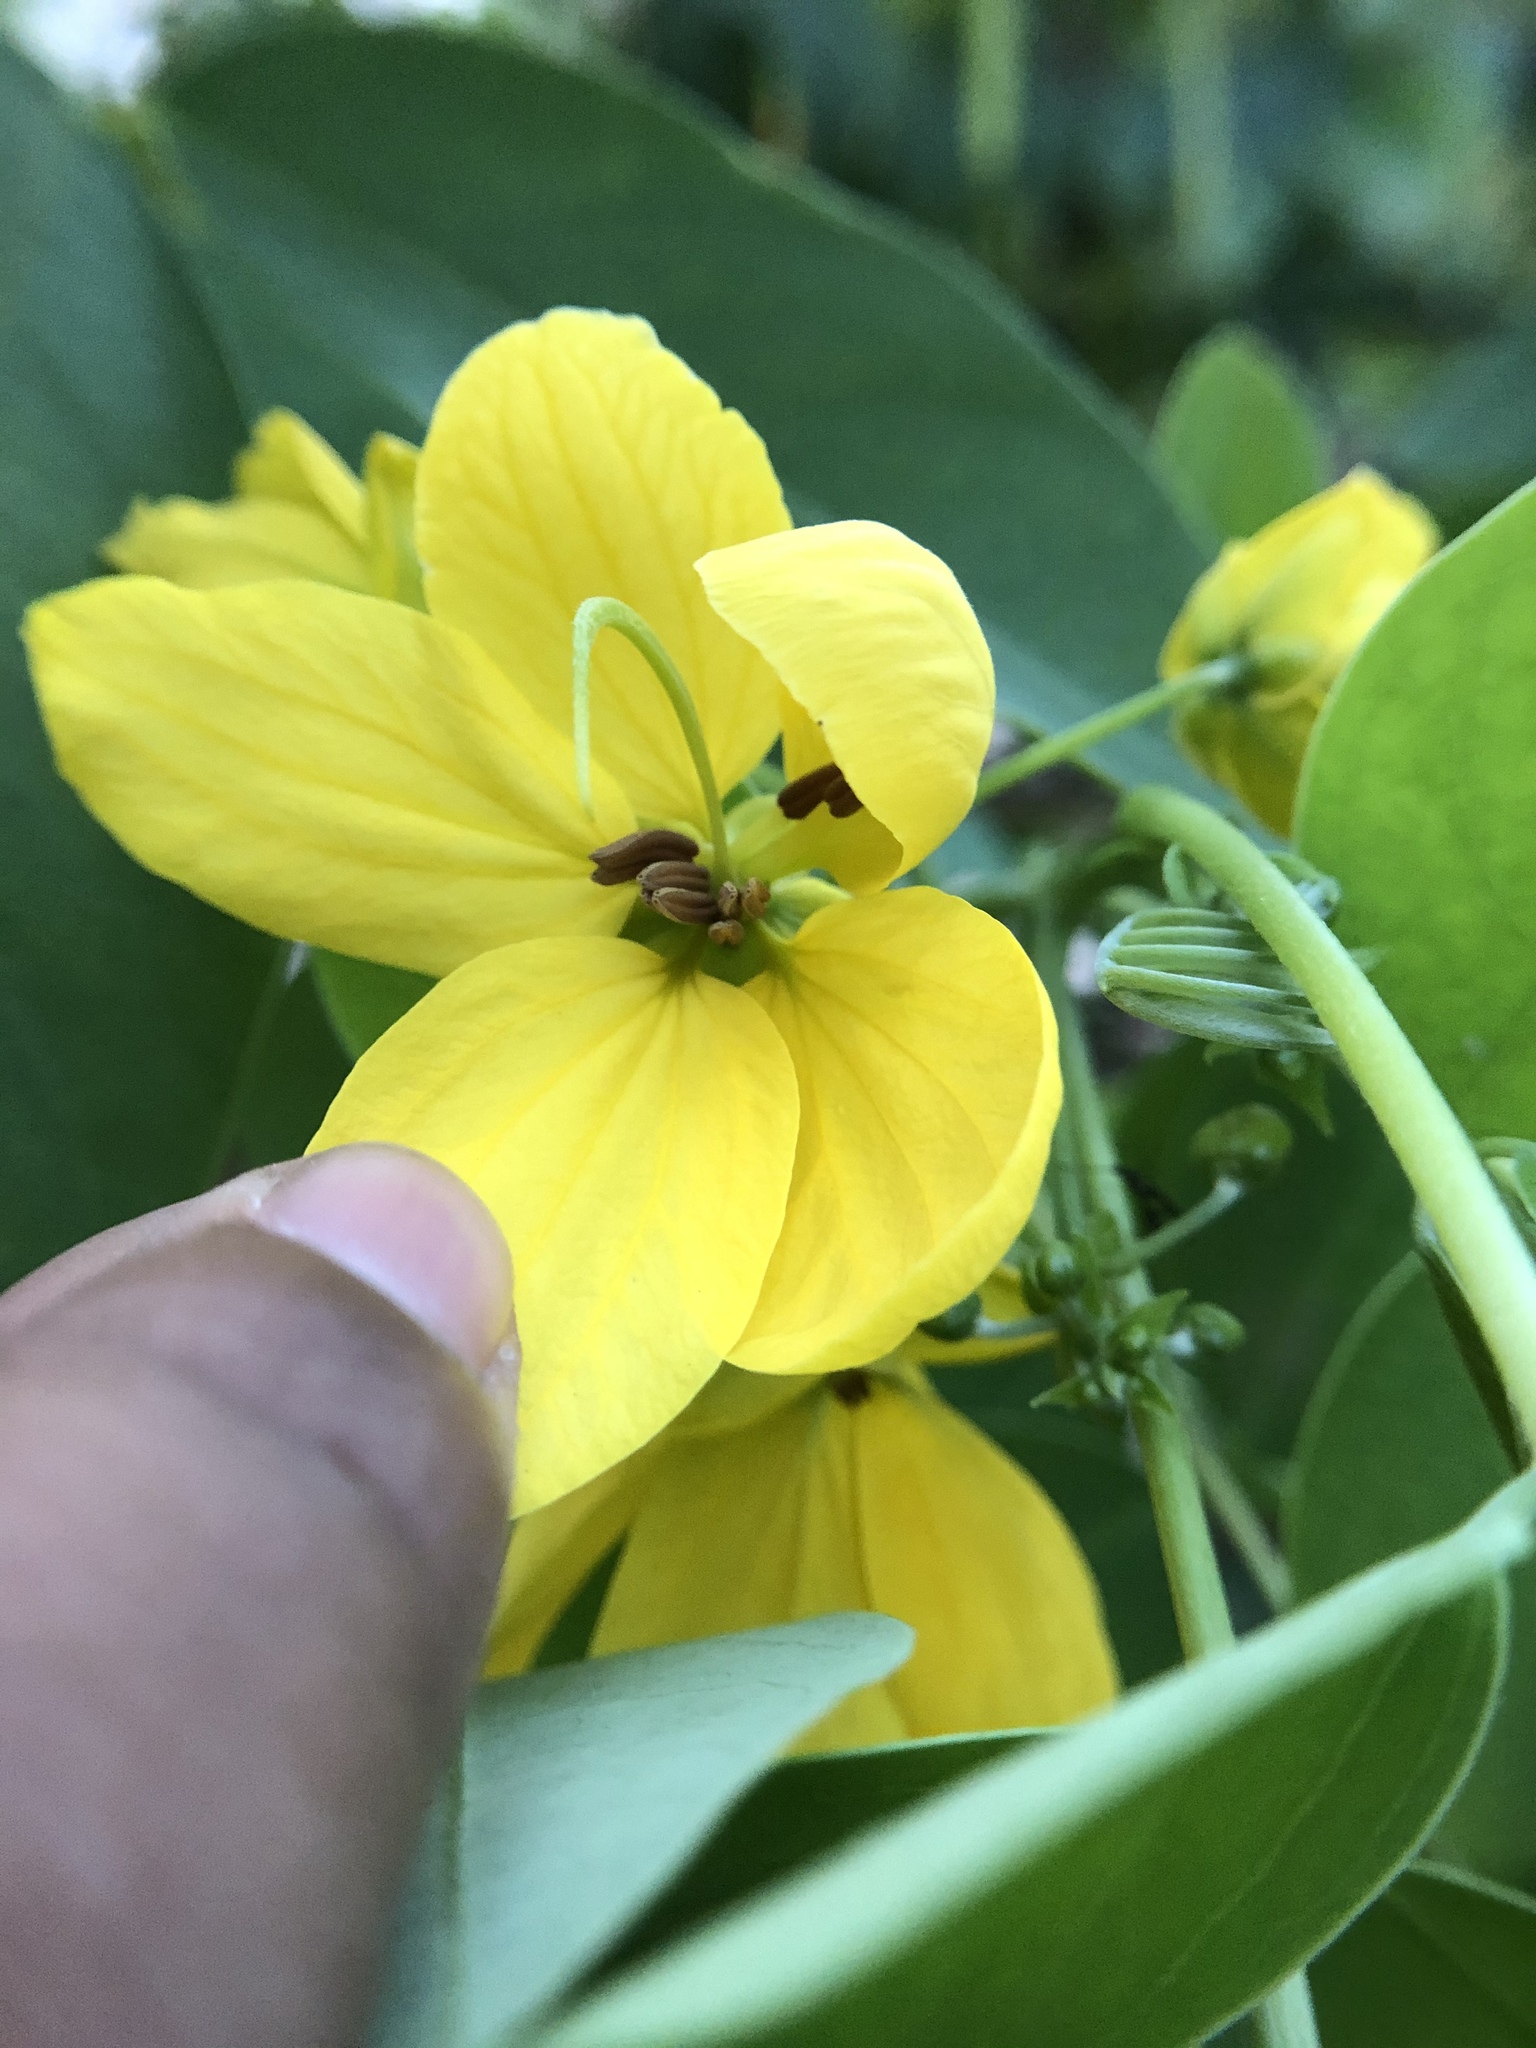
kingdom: Plantae
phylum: Tracheophyta
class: Magnoliopsida
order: Fabales
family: Fabaceae
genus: Senna
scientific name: Senna sulfurea
